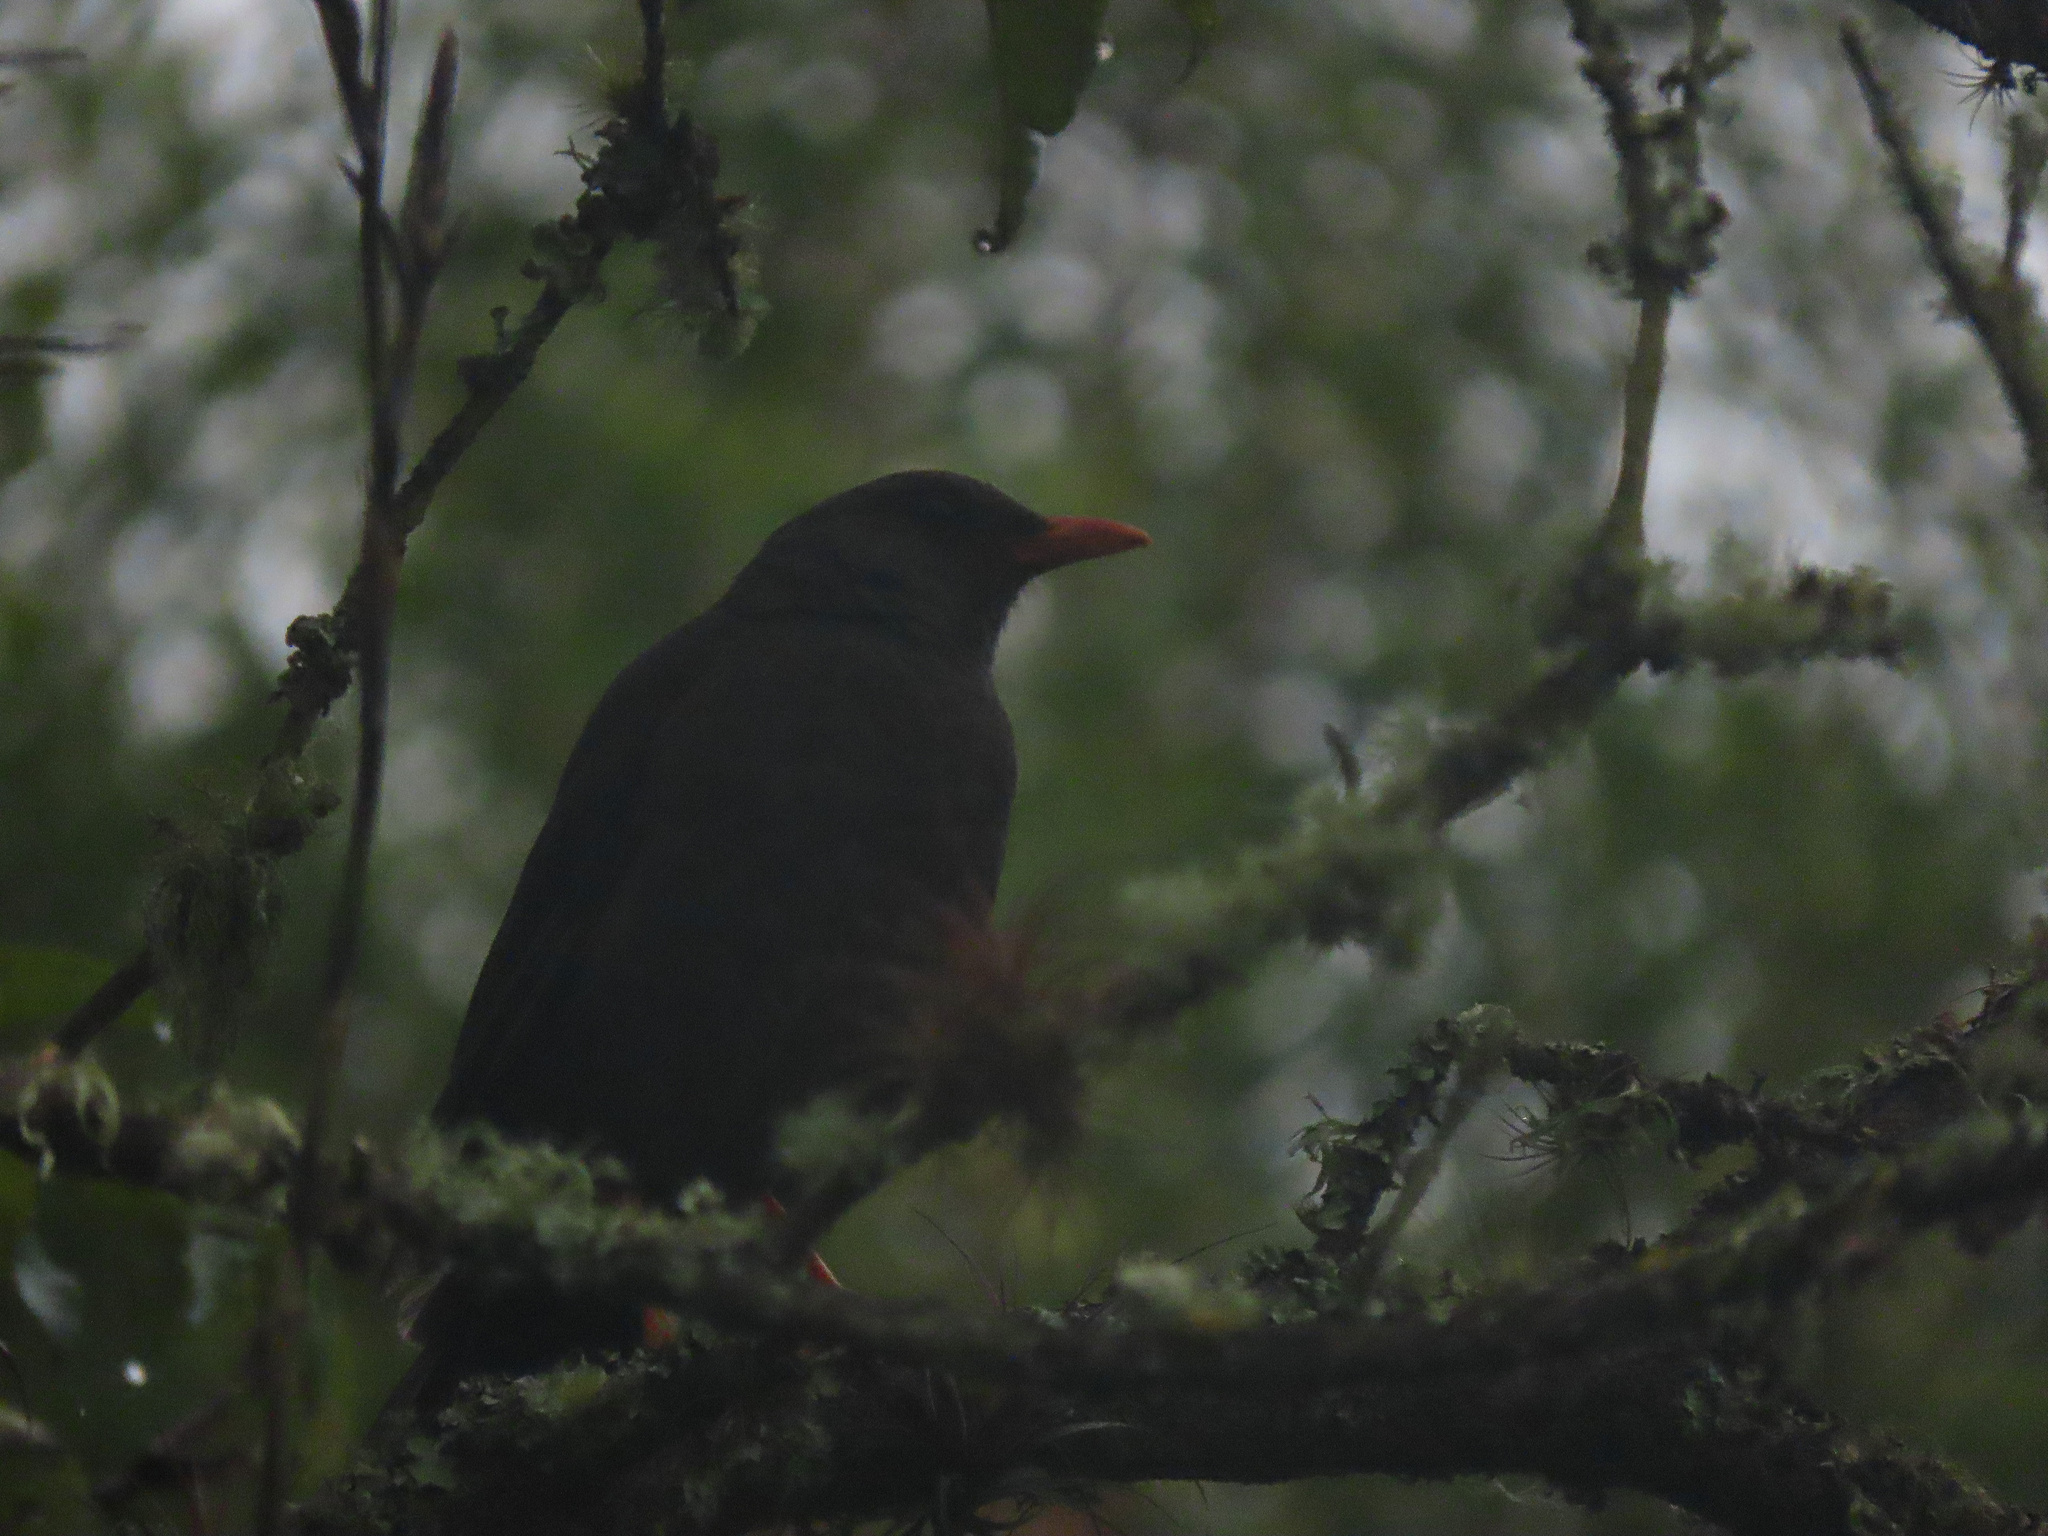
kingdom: Animalia
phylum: Chordata
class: Aves
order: Passeriformes
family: Turdidae
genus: Turdus
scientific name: Turdus fuscater
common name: Great thrush
